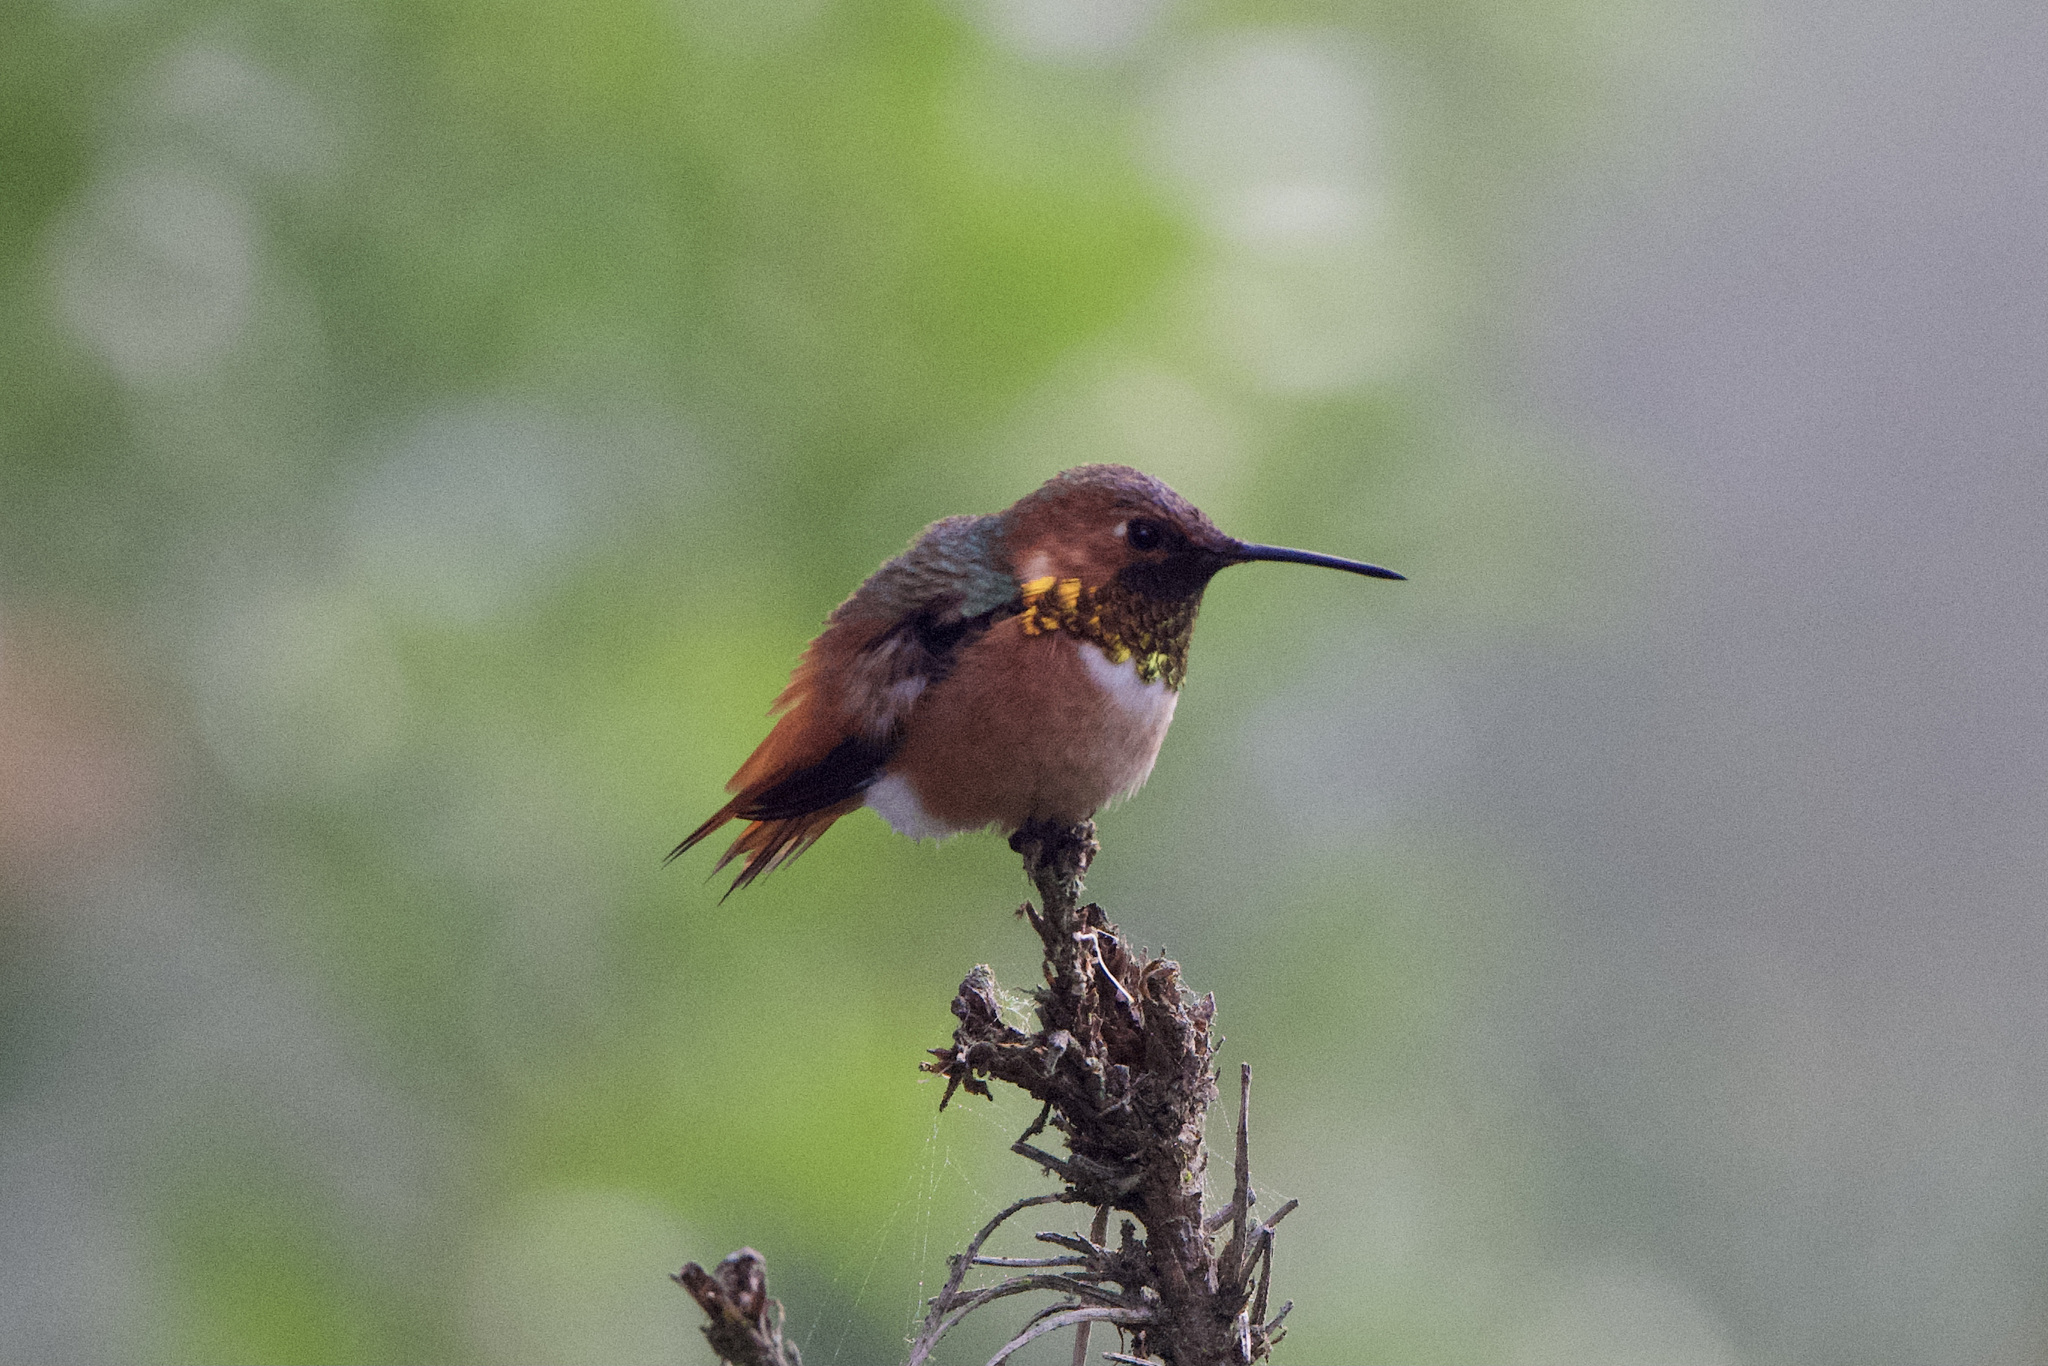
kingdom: Animalia
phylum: Chordata
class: Aves
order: Apodiformes
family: Trochilidae
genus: Selasphorus
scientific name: Selasphorus sasin
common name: Allen's hummingbird
